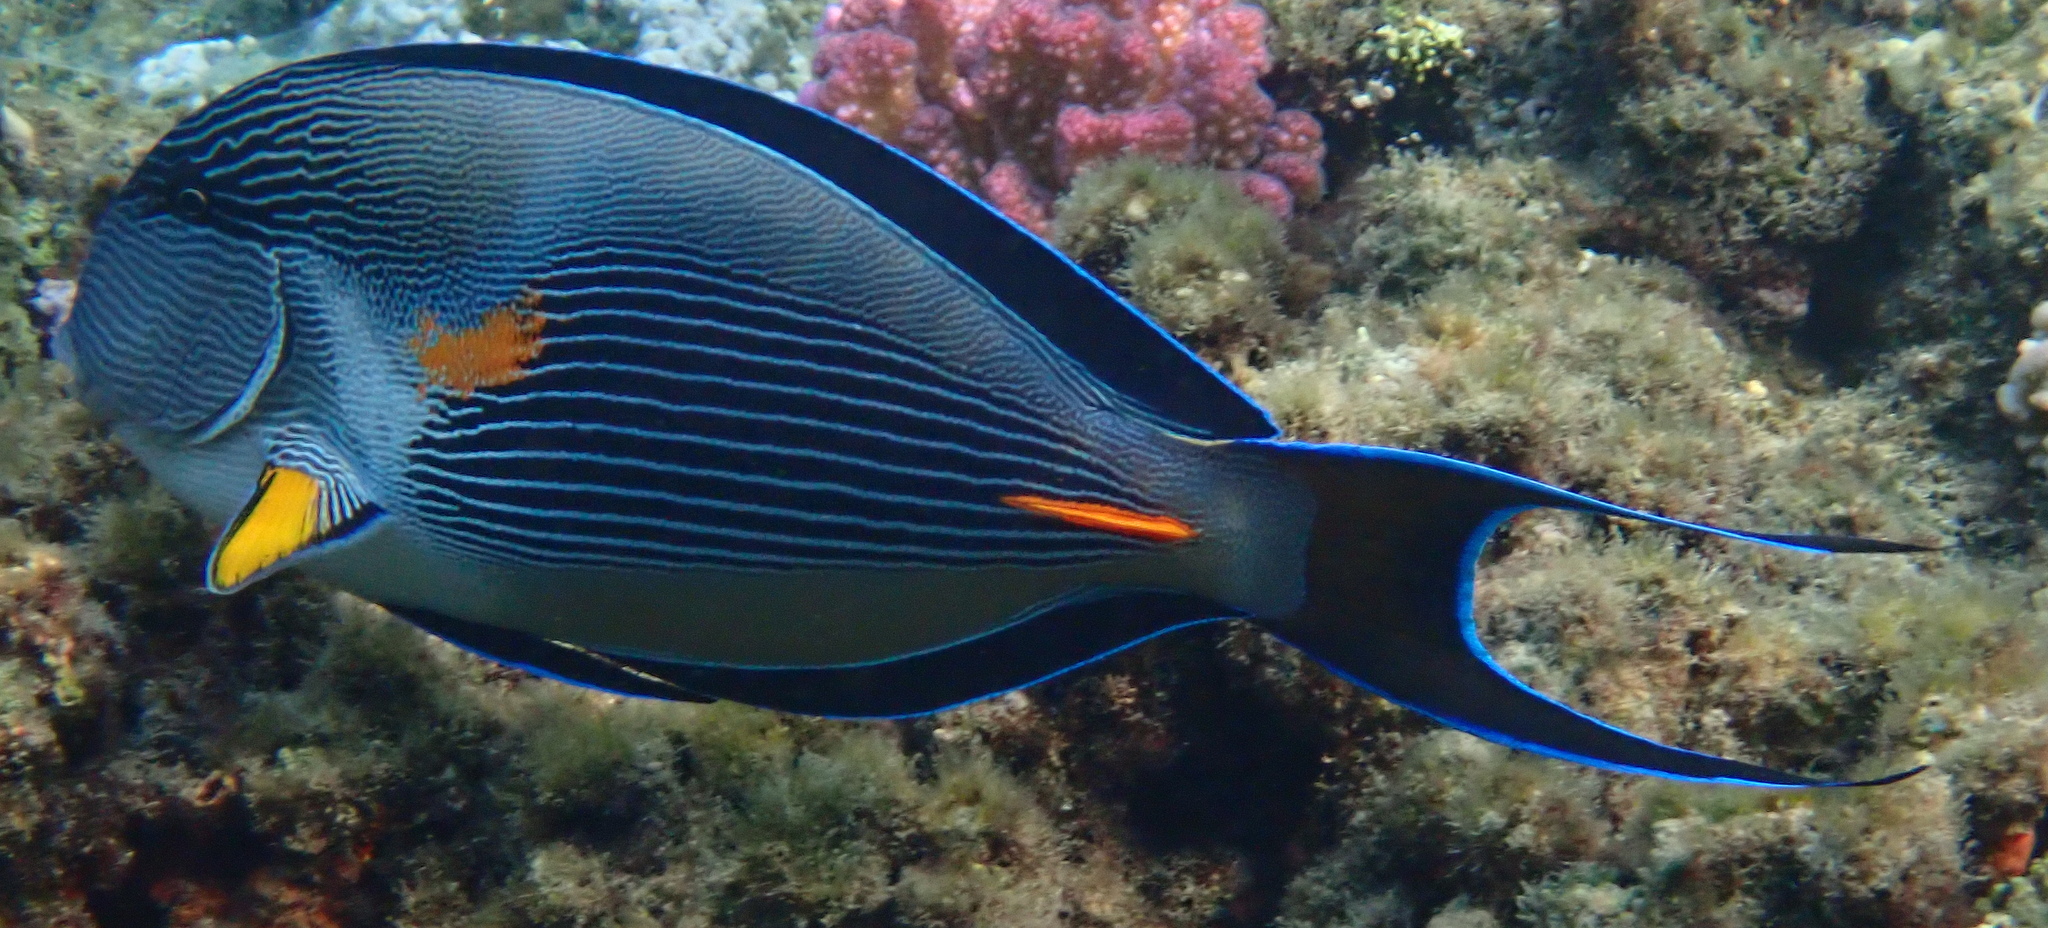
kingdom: Animalia
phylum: Chordata
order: Perciformes
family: Acanthuridae
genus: Acanthurus
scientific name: Acanthurus sohal
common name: Red sea surgeonfish
